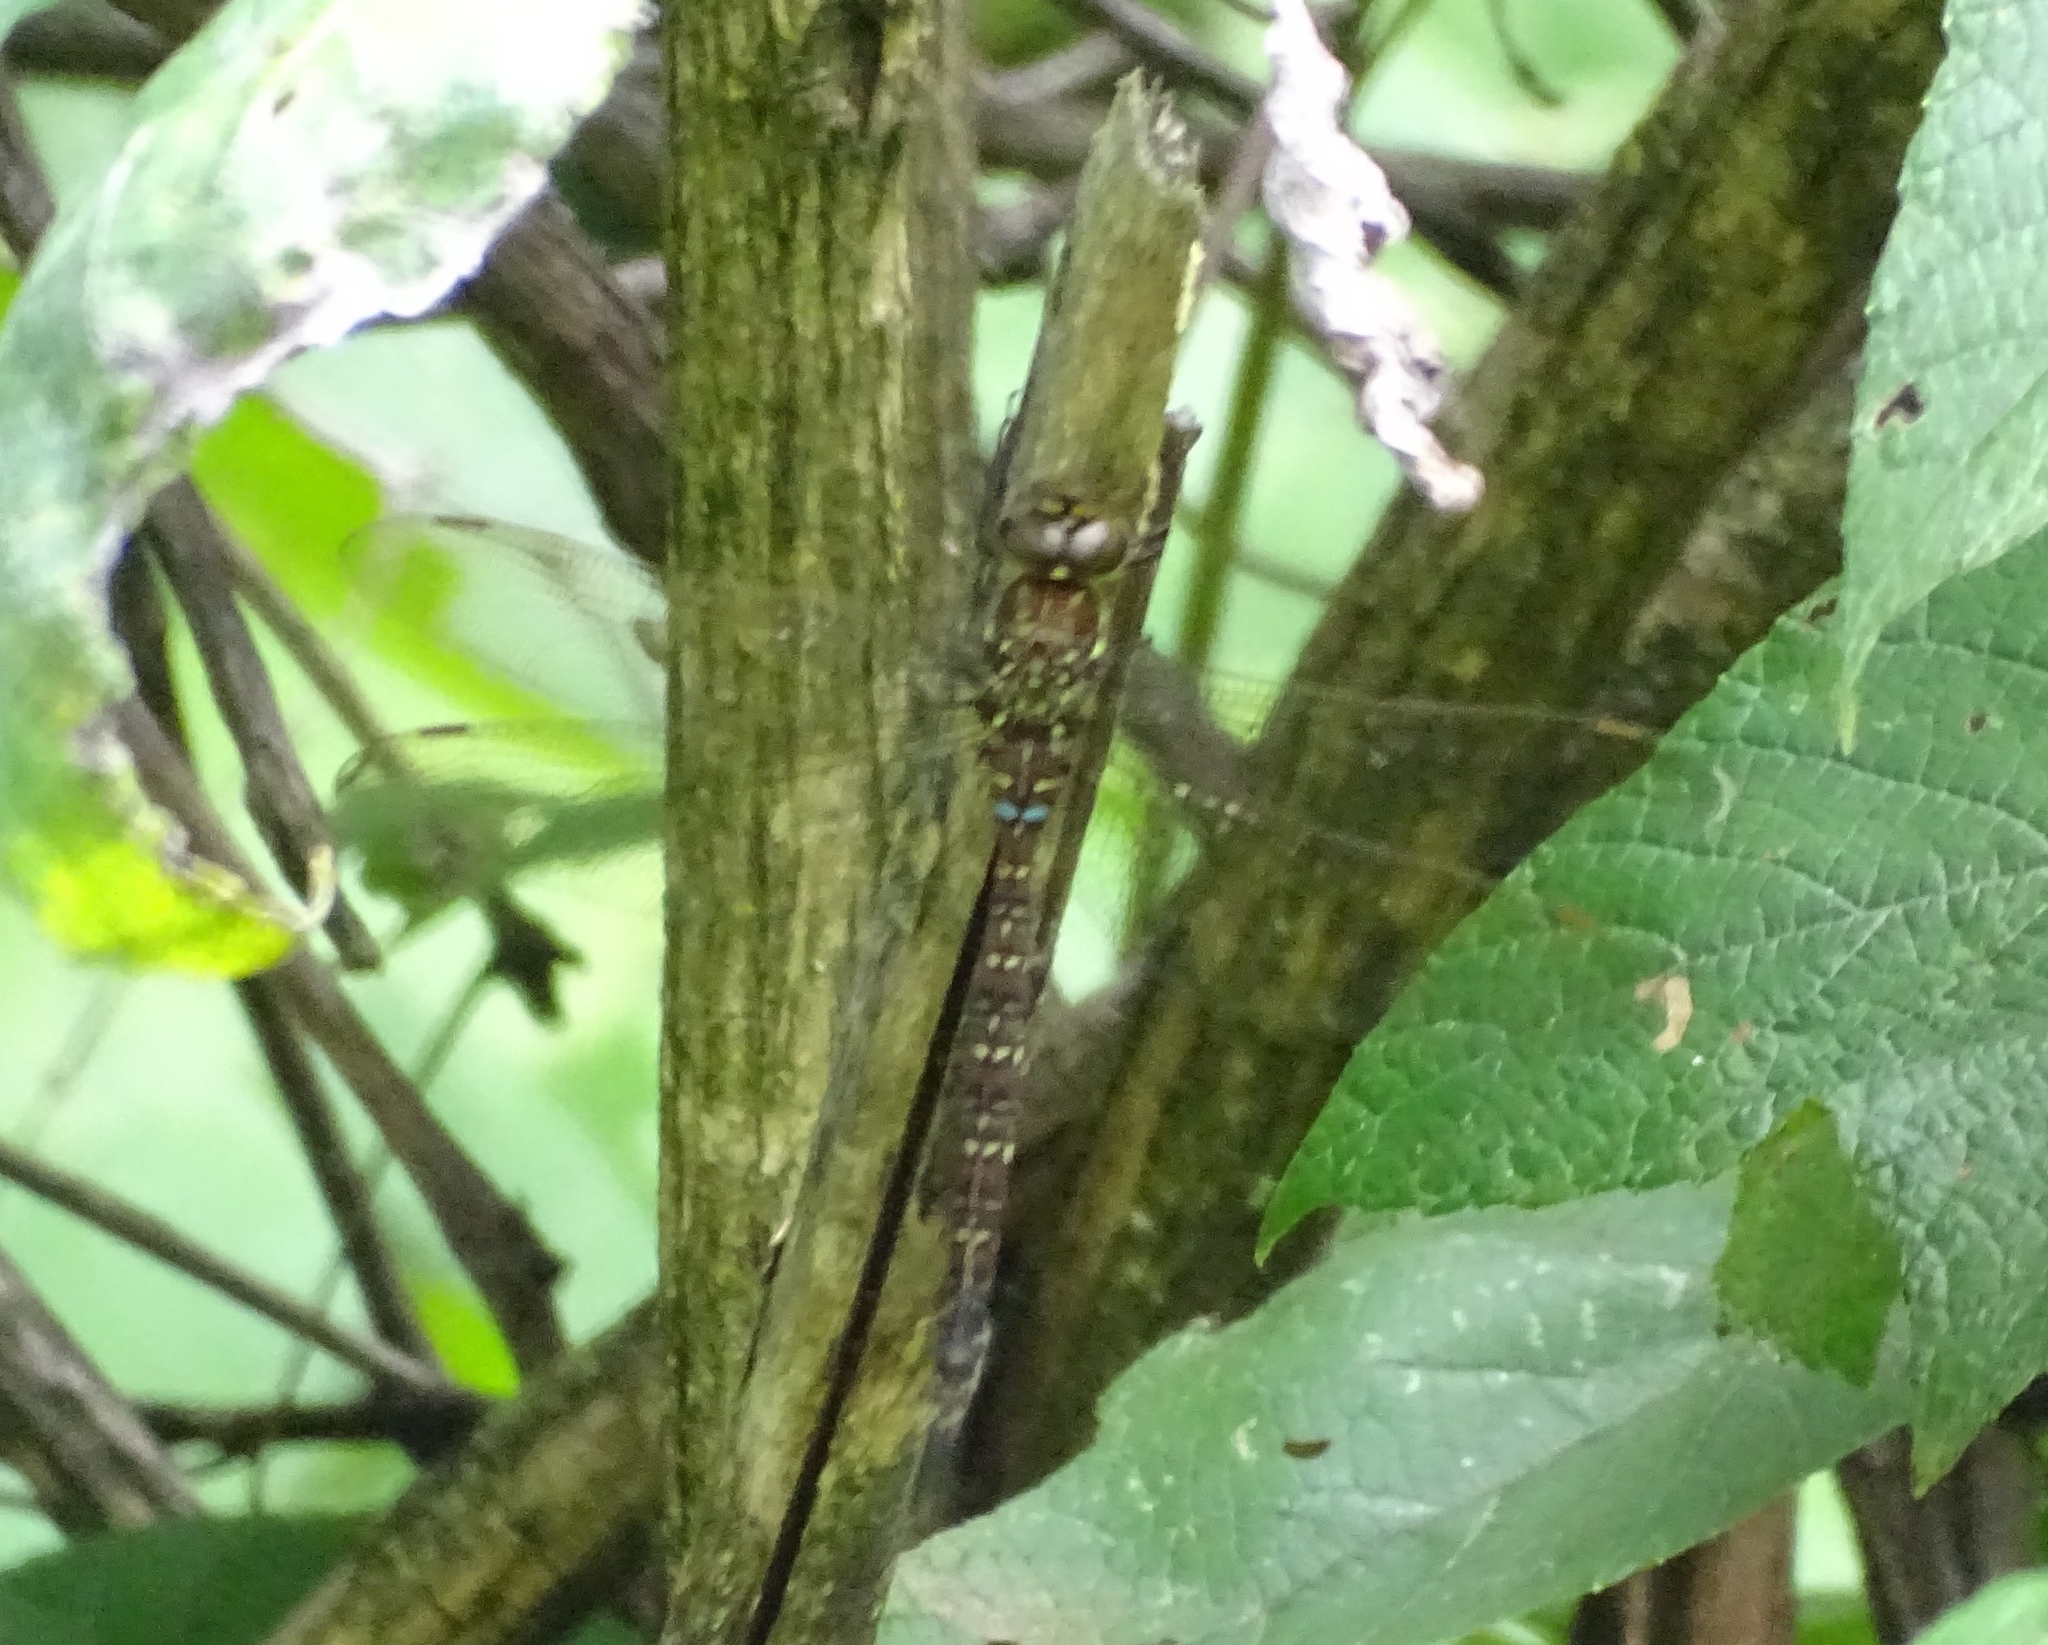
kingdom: Animalia
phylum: Arthropoda
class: Insecta
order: Odonata
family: Aeshnidae
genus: Aeshna
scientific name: Aeshna umbrosa
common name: Shadow darner
